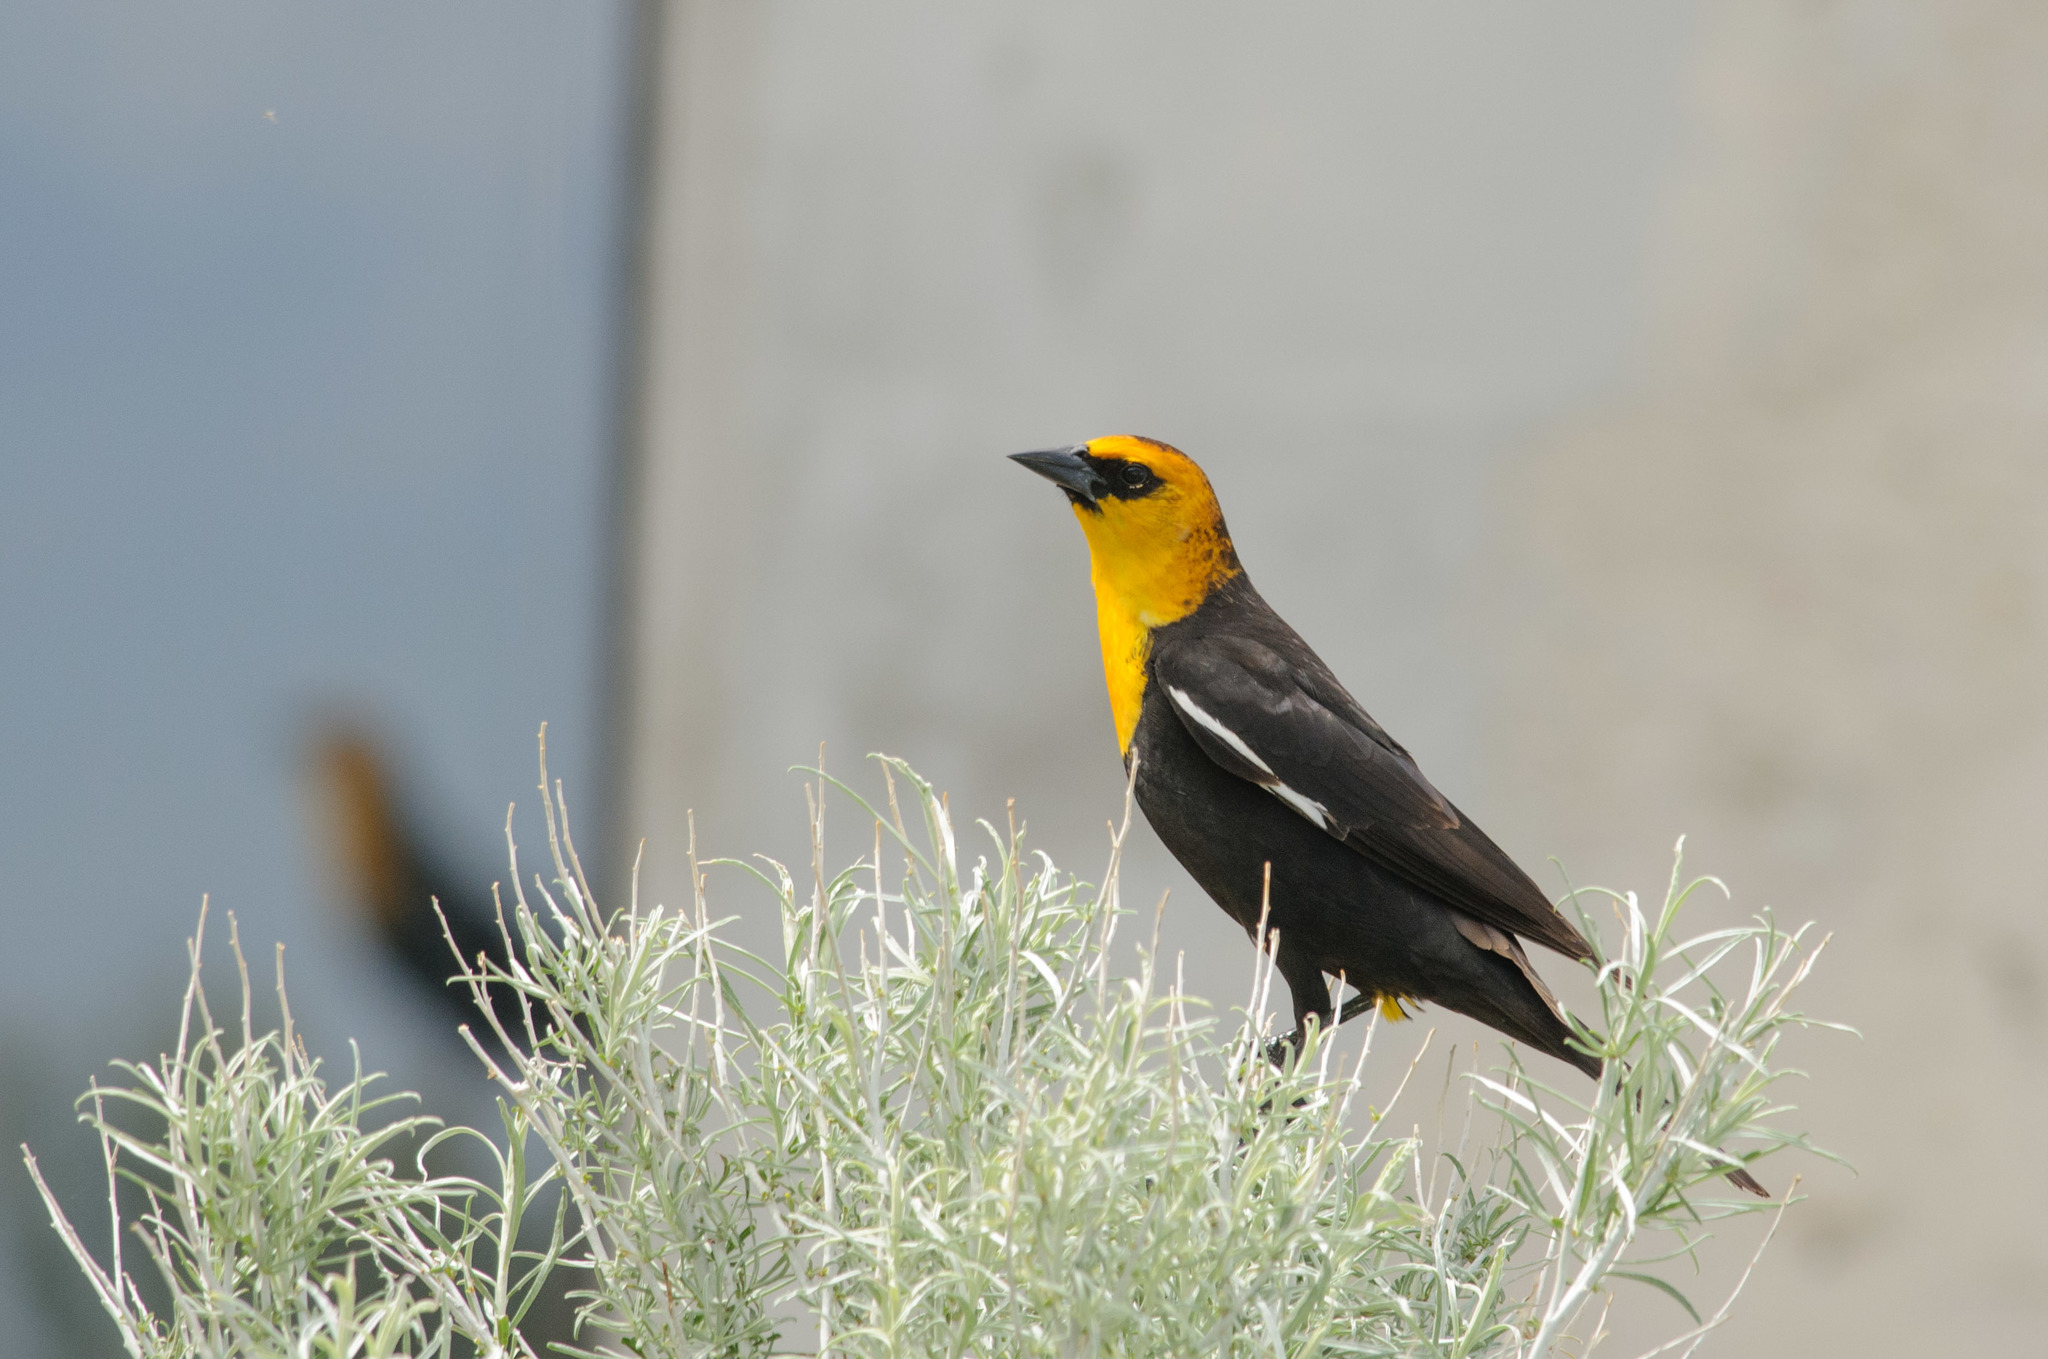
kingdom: Animalia
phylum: Chordata
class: Aves
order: Passeriformes
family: Icteridae
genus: Xanthocephalus
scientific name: Xanthocephalus xanthocephalus
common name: Yellow-headed blackbird
